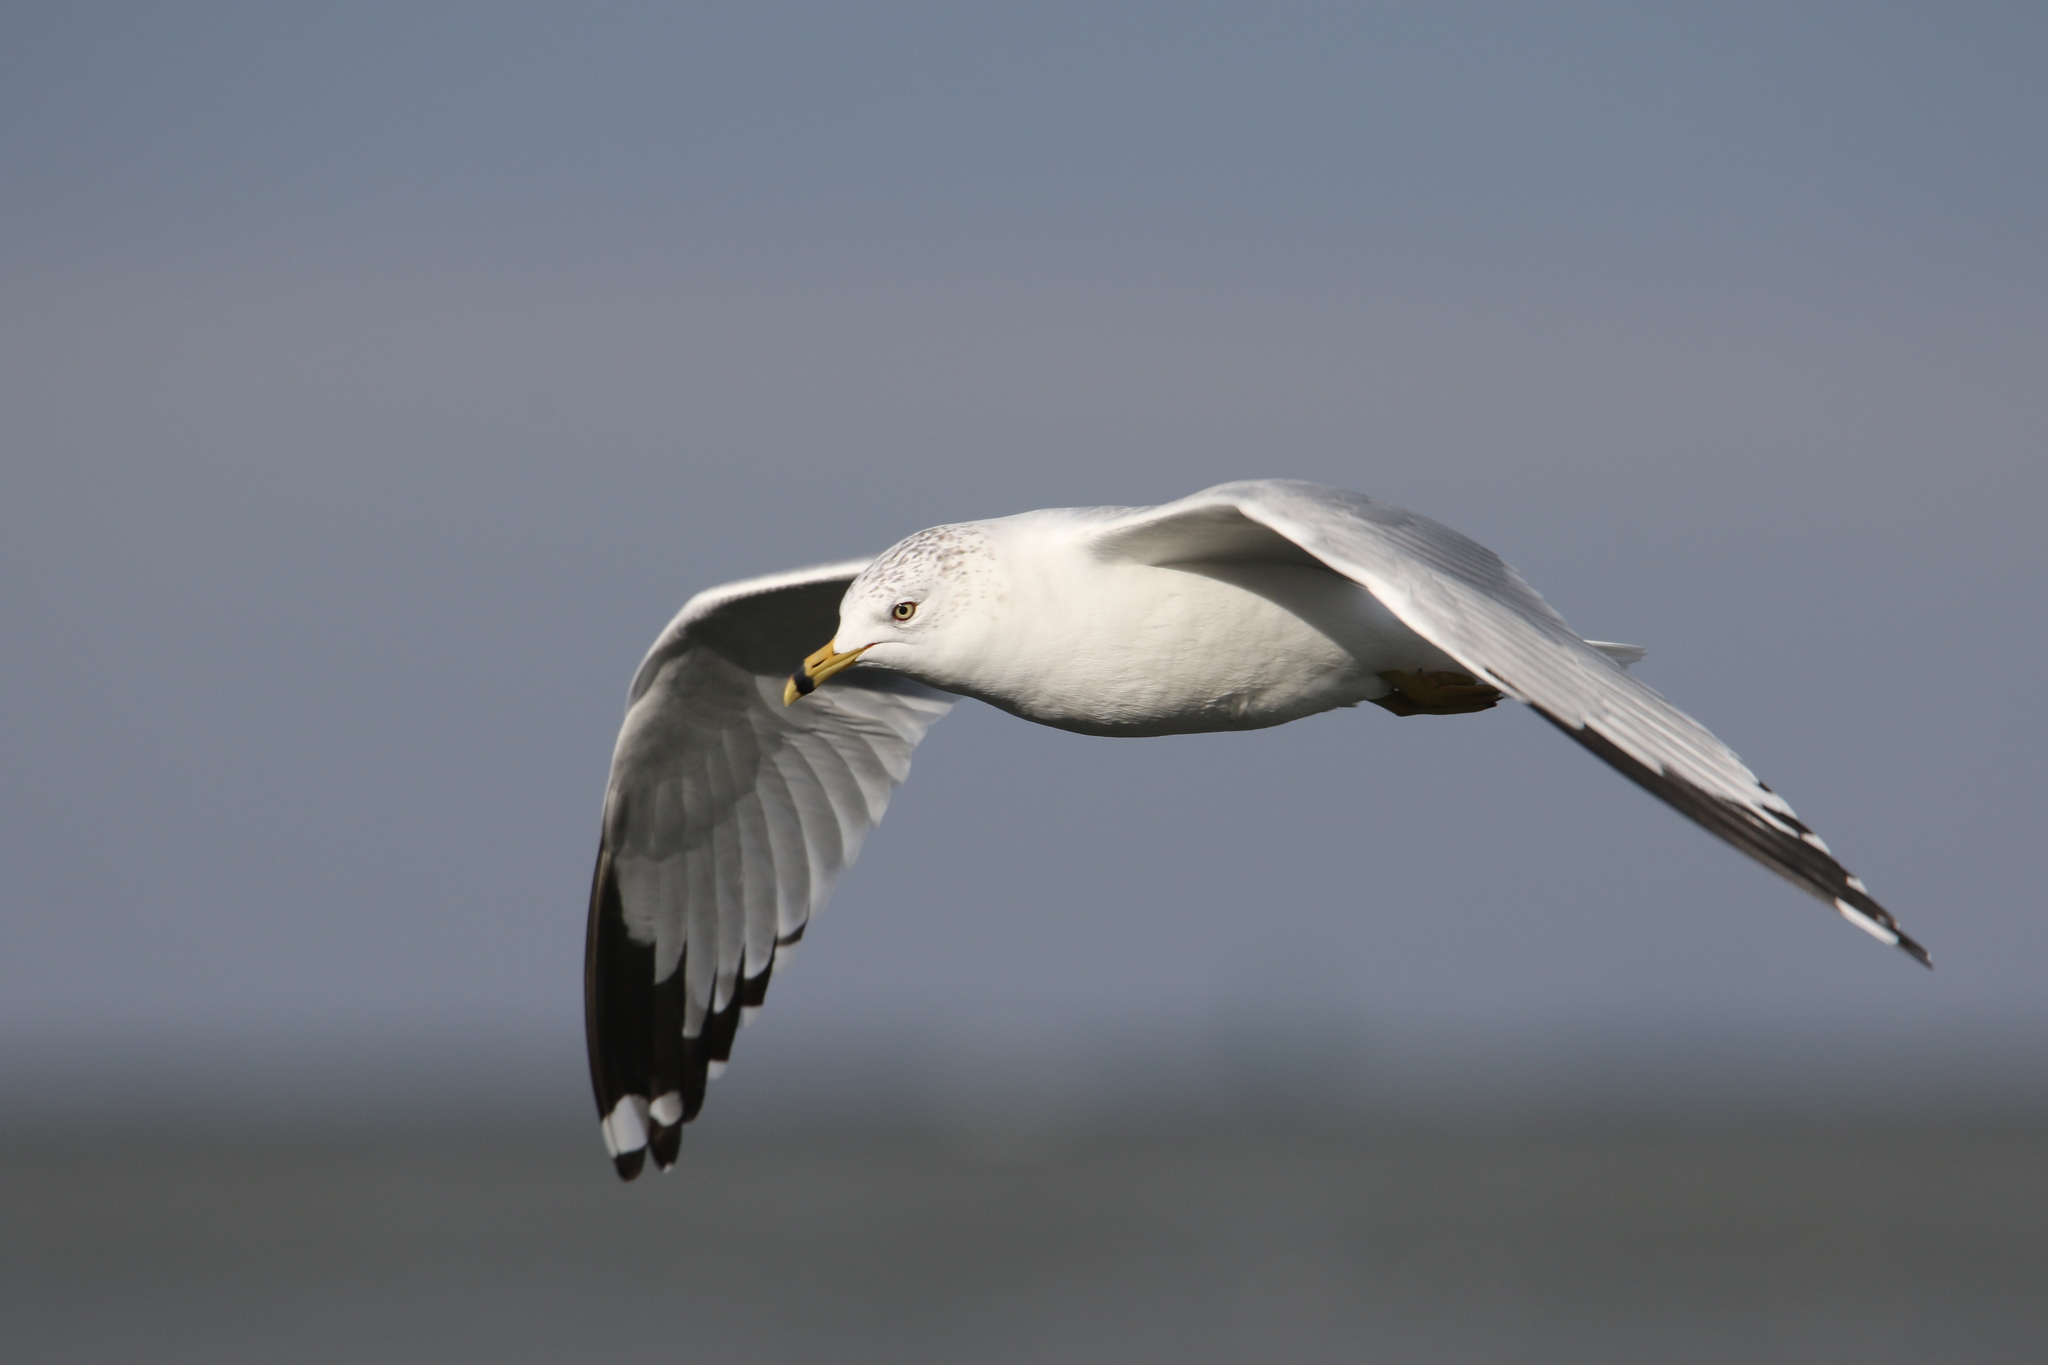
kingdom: Animalia
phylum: Chordata
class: Aves
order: Charadriiformes
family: Laridae
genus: Larus
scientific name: Larus delawarensis
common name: Ring-billed gull
